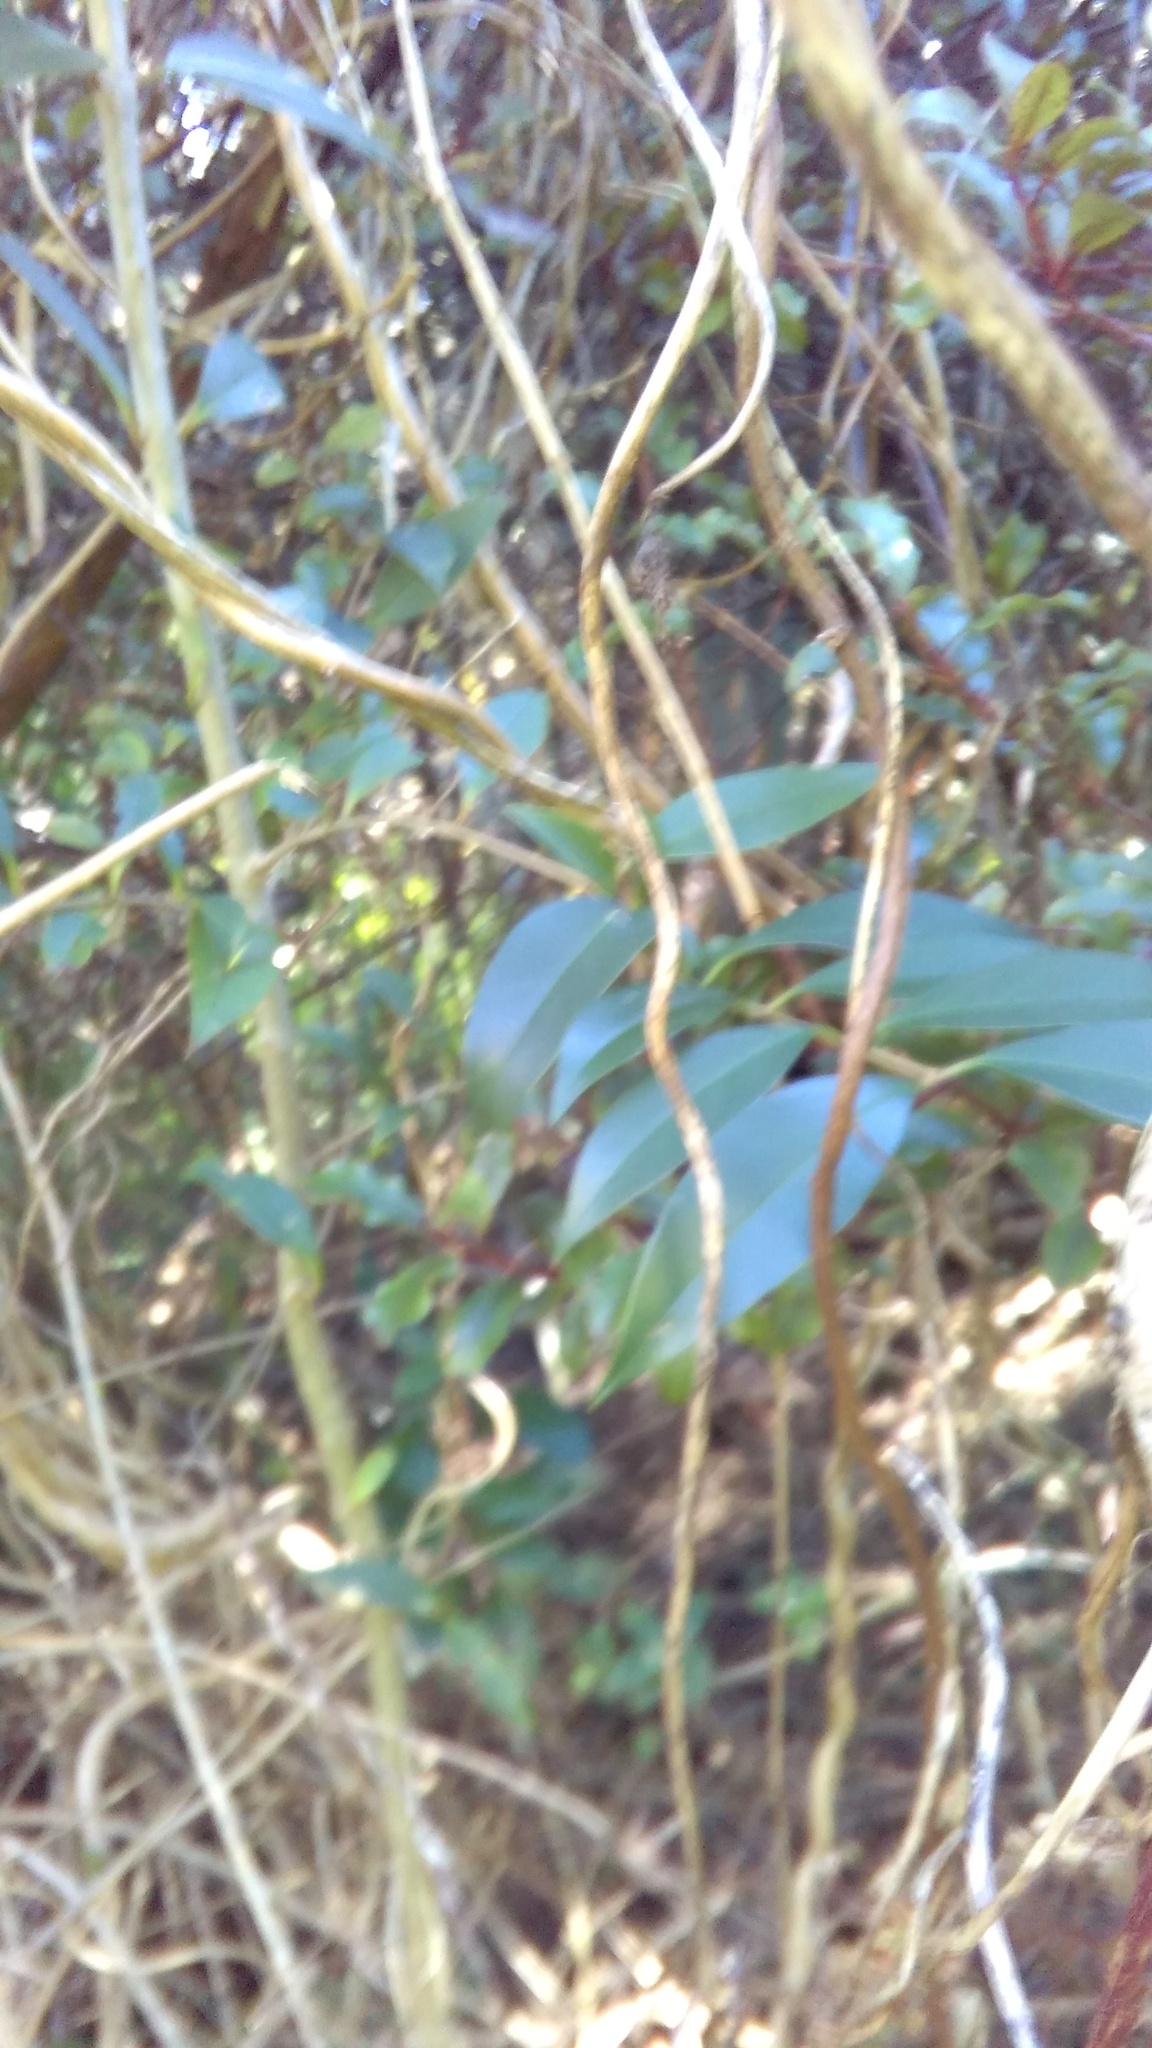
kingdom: Plantae
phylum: Tracheophyta
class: Magnoliopsida
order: Lamiales
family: Oleaceae
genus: Ligustrum
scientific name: Ligustrum lucidum
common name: Glossy privet
